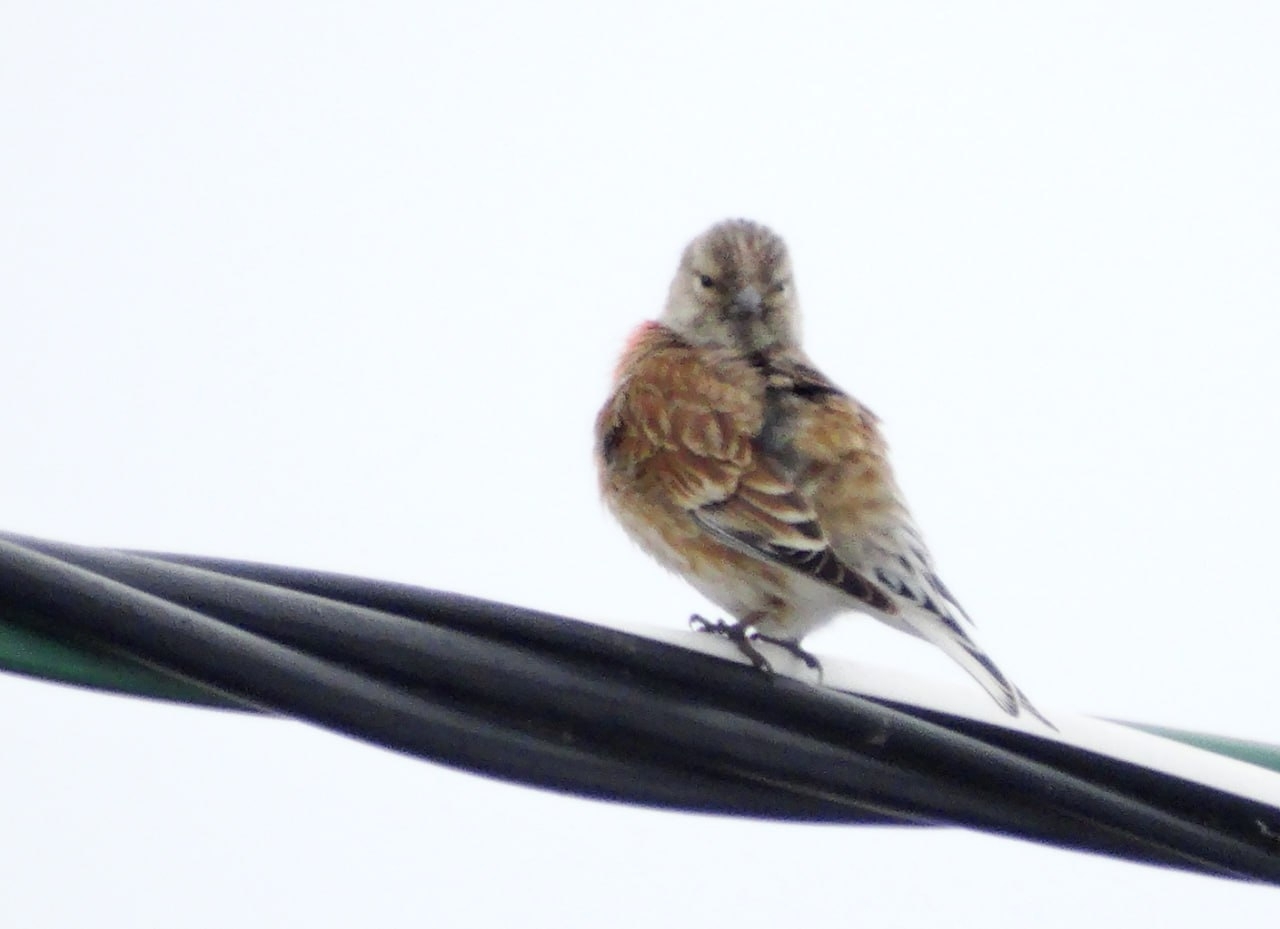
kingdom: Animalia
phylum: Chordata
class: Aves
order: Passeriformes
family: Fringillidae
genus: Linaria
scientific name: Linaria cannabina
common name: Common linnet
